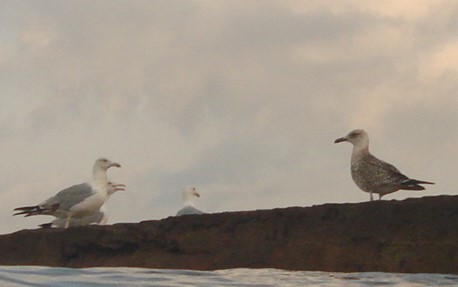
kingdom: Animalia
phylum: Chordata
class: Aves
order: Charadriiformes
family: Laridae
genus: Larus
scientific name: Larus michahellis
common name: Yellow-legged gull
